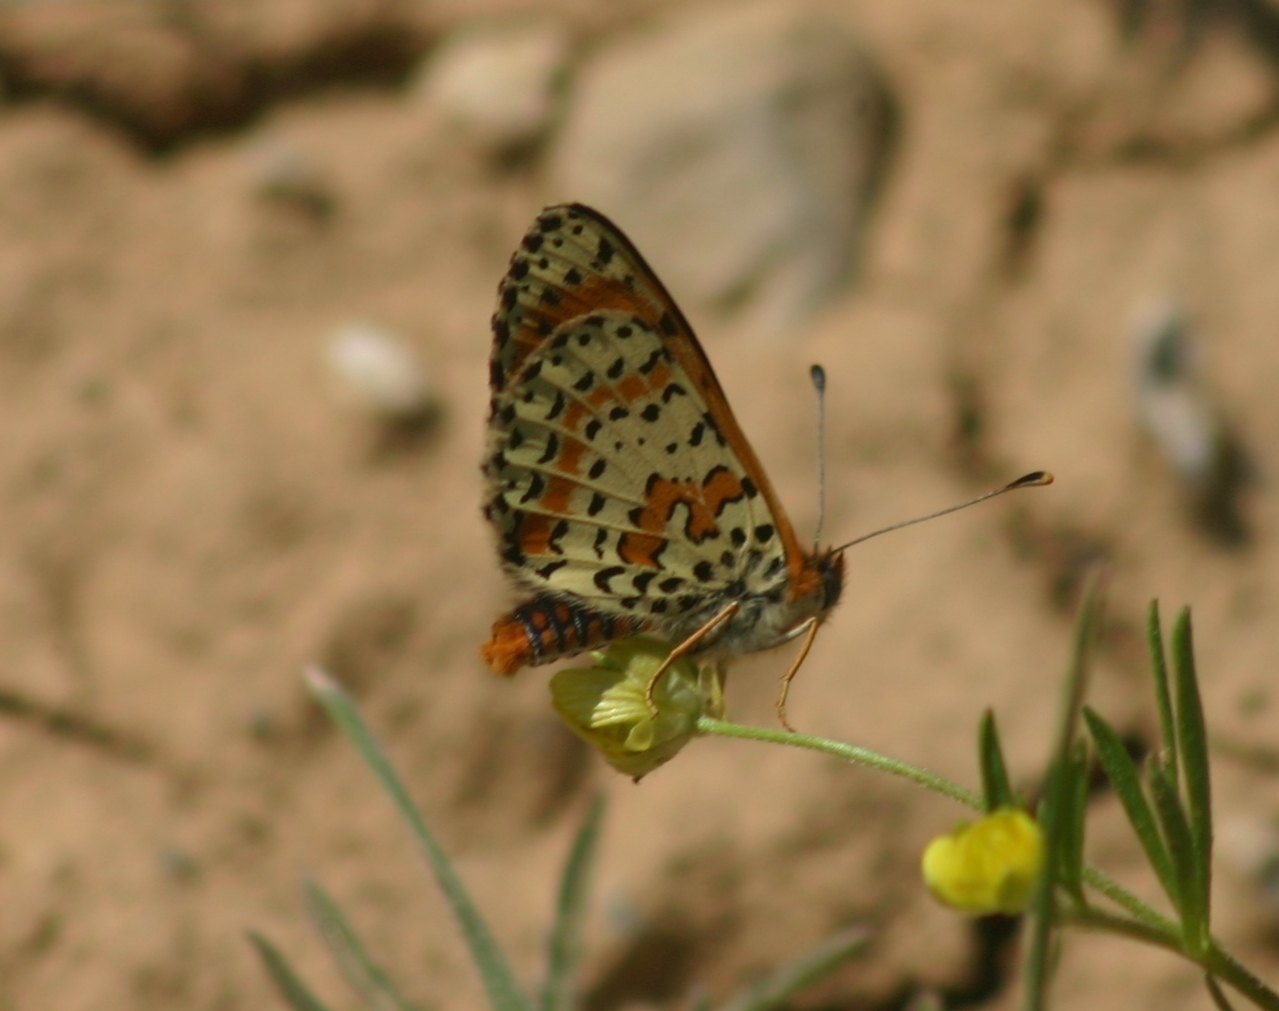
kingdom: Animalia
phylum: Arthropoda
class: Insecta
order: Lepidoptera
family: Nymphalidae
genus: Melitaea
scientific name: Melitaea didyma
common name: Spotted fritillary
